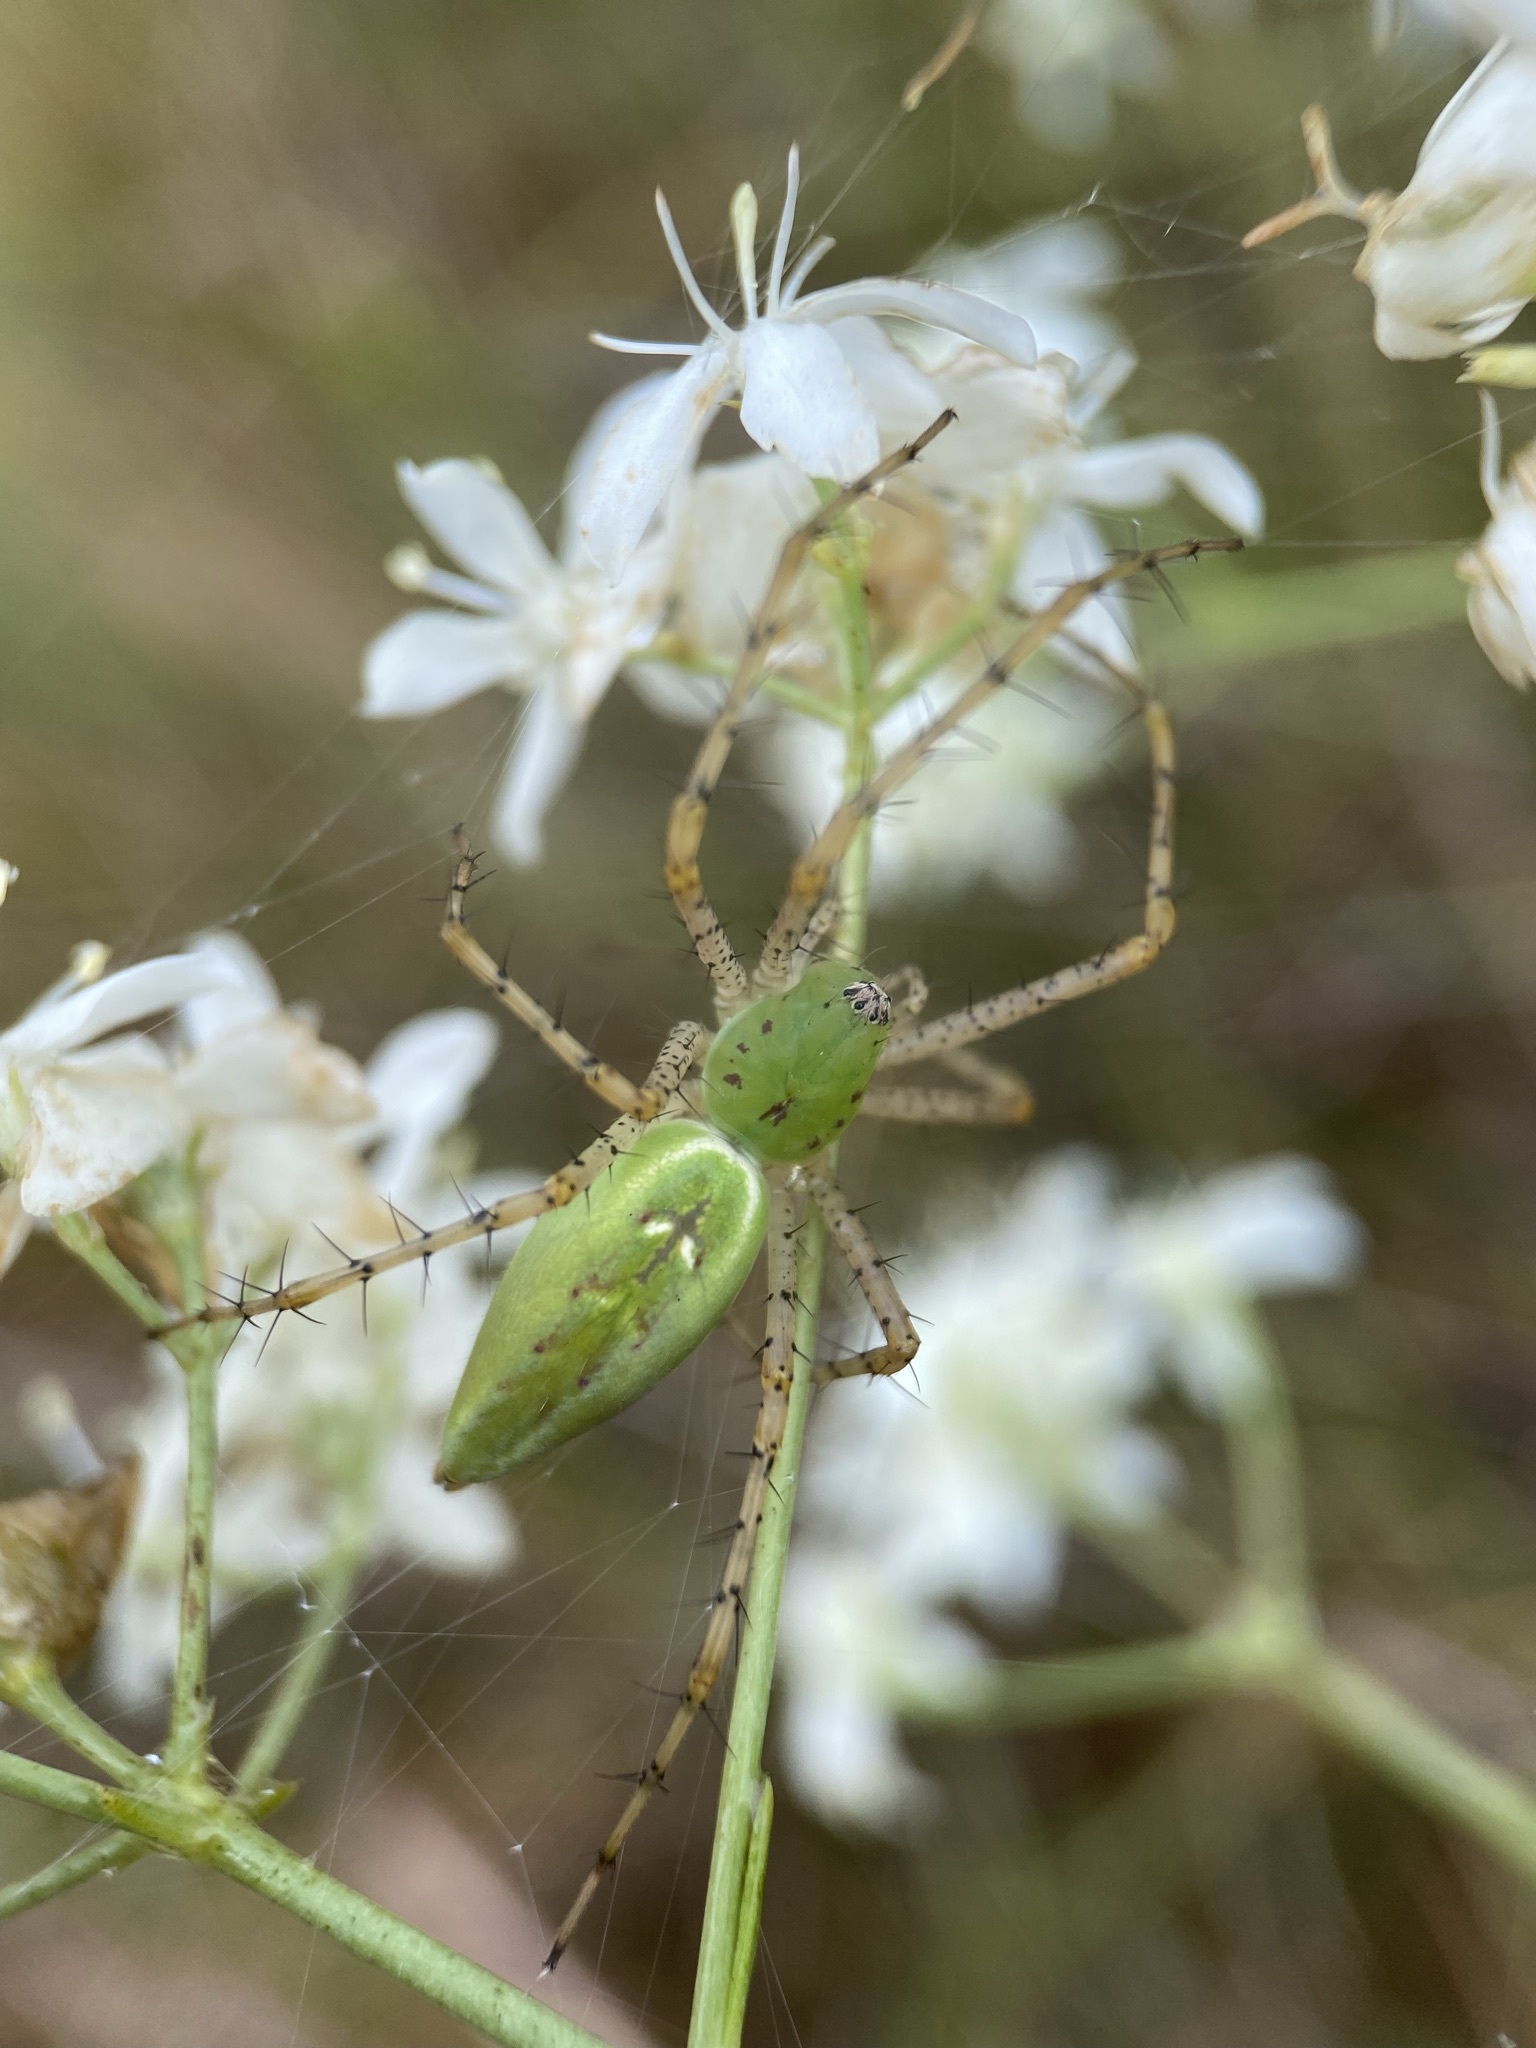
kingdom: Animalia
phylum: Arthropoda
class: Arachnida
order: Araneae
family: Oxyopidae
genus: Peucetia
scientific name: Peucetia viridans
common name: Lynx spiders
